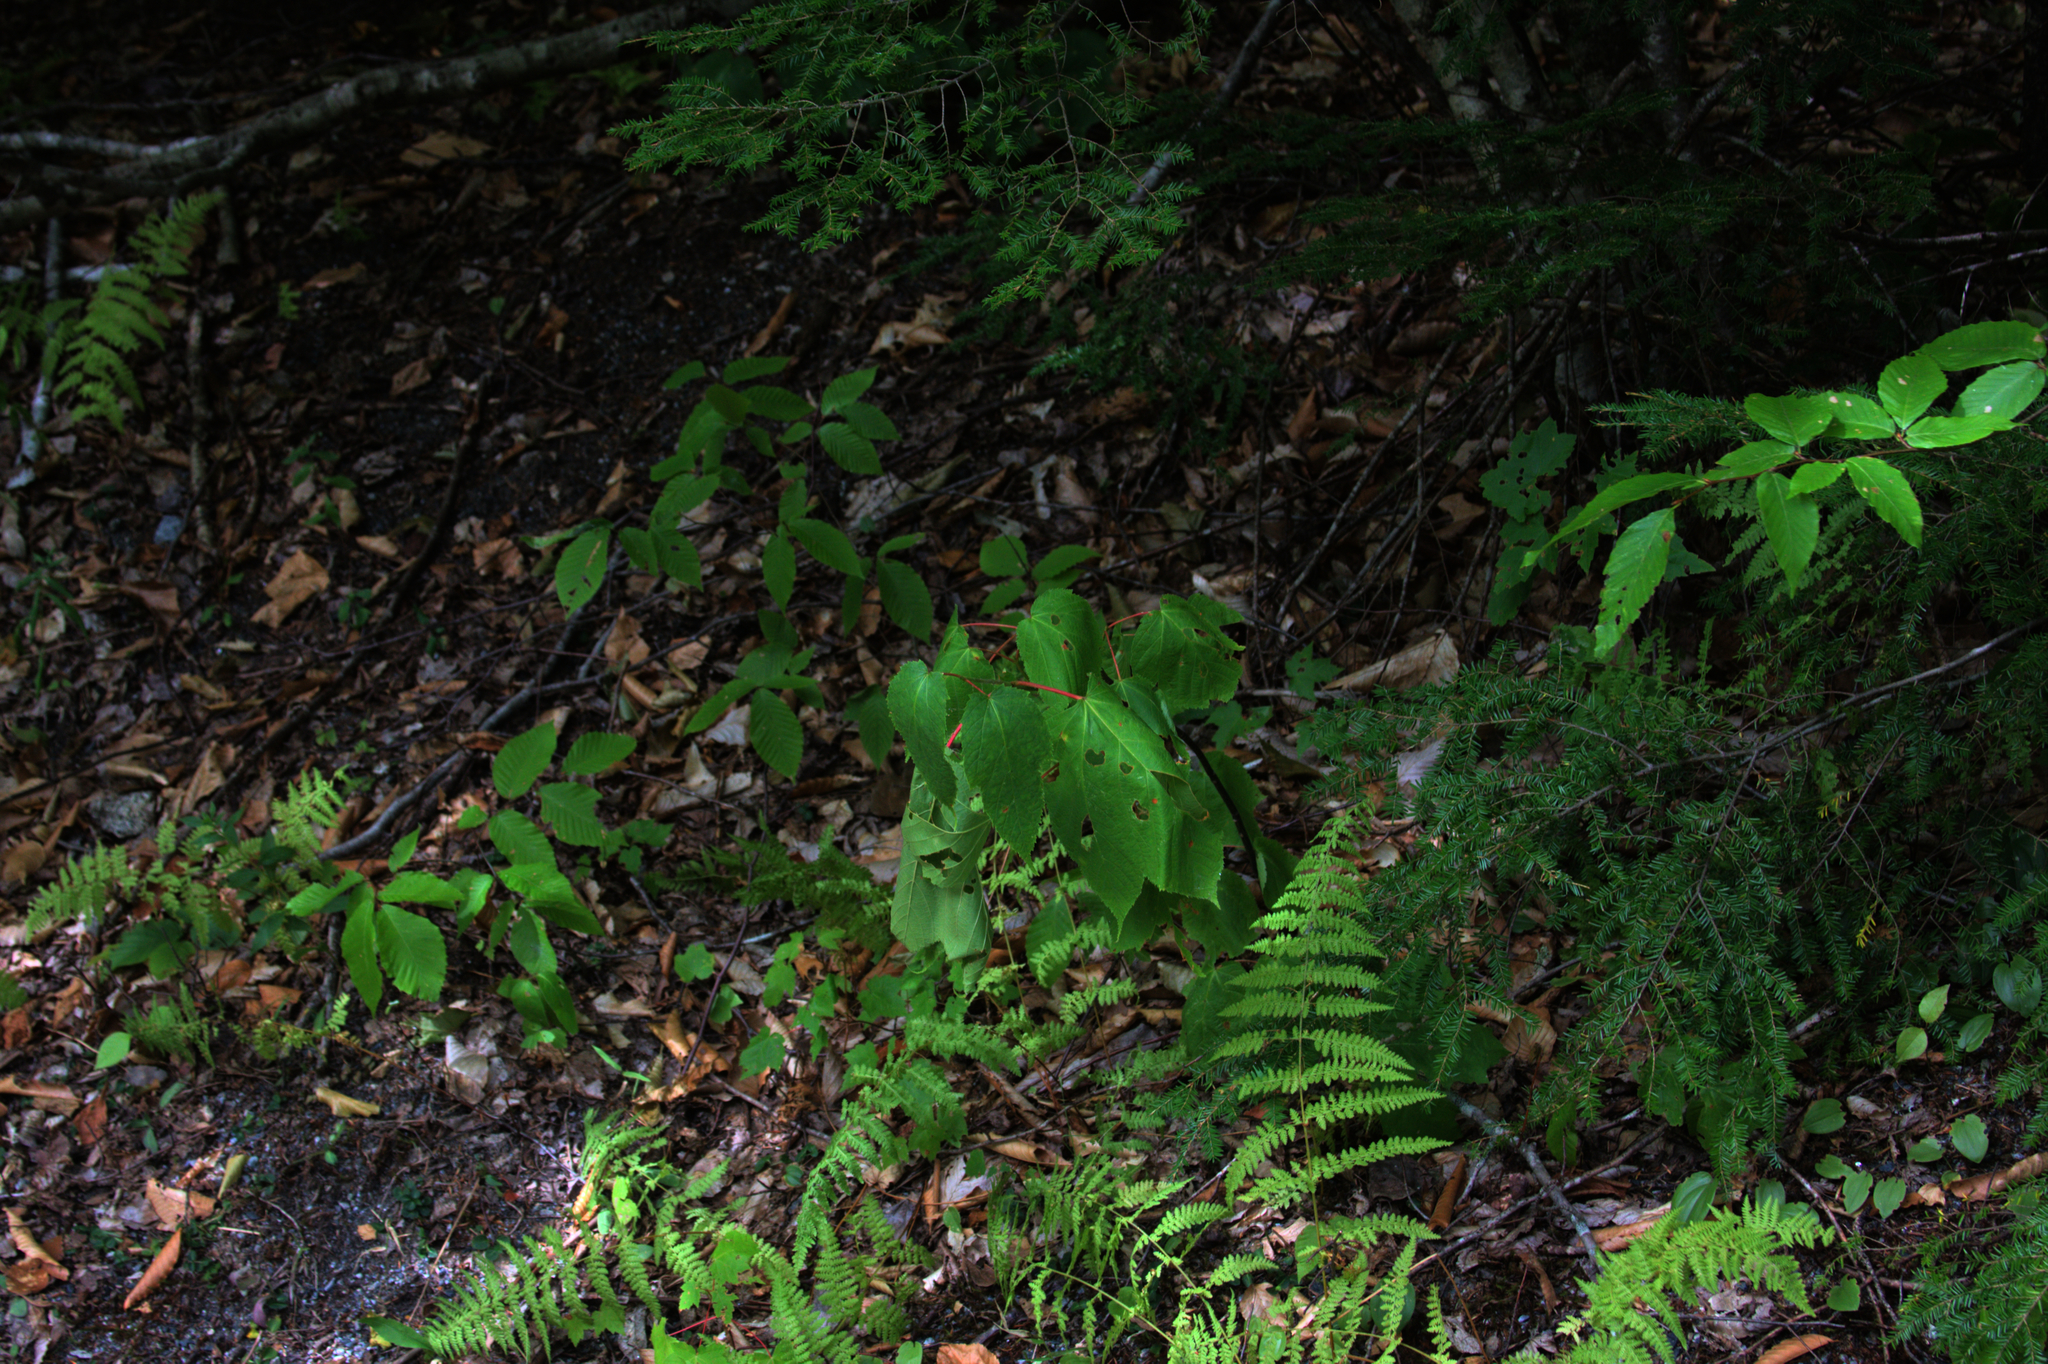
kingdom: Plantae
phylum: Tracheophyta
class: Magnoliopsida
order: Sapindales
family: Sapindaceae
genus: Acer
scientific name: Acer pensylvanicum
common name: Moosewood
